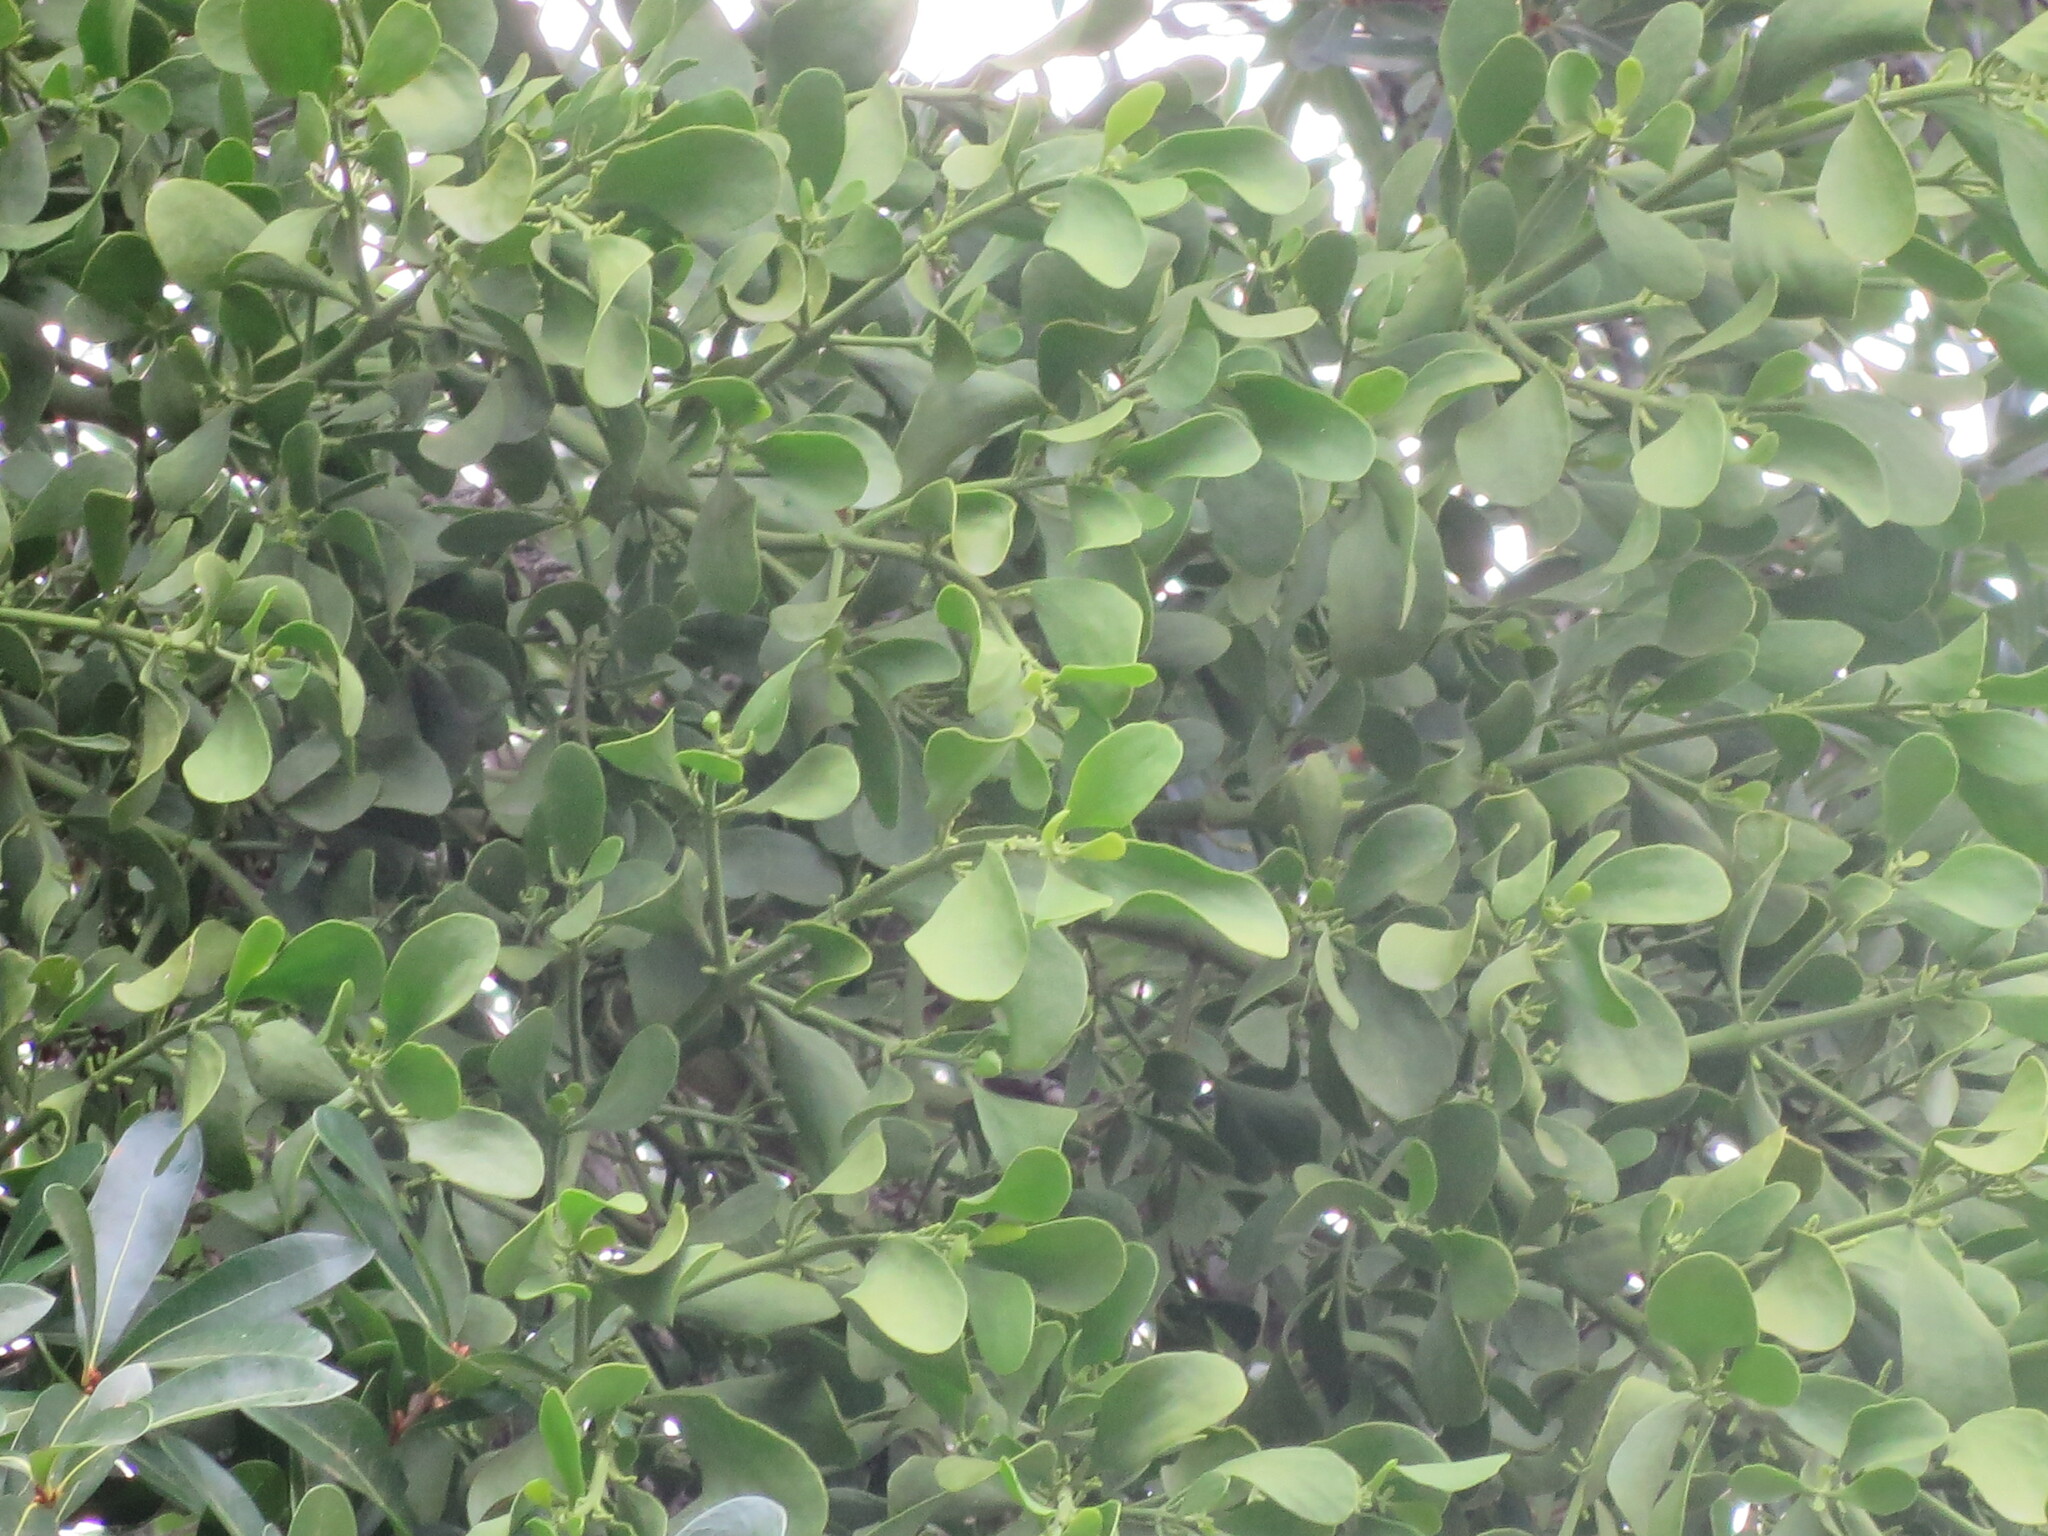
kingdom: Plantae
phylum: Tracheophyta
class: Magnoliopsida
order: Santalales
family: Viscaceae
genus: Phoradendron
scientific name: Phoradendron leucarpum
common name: Pacific mistletoe
